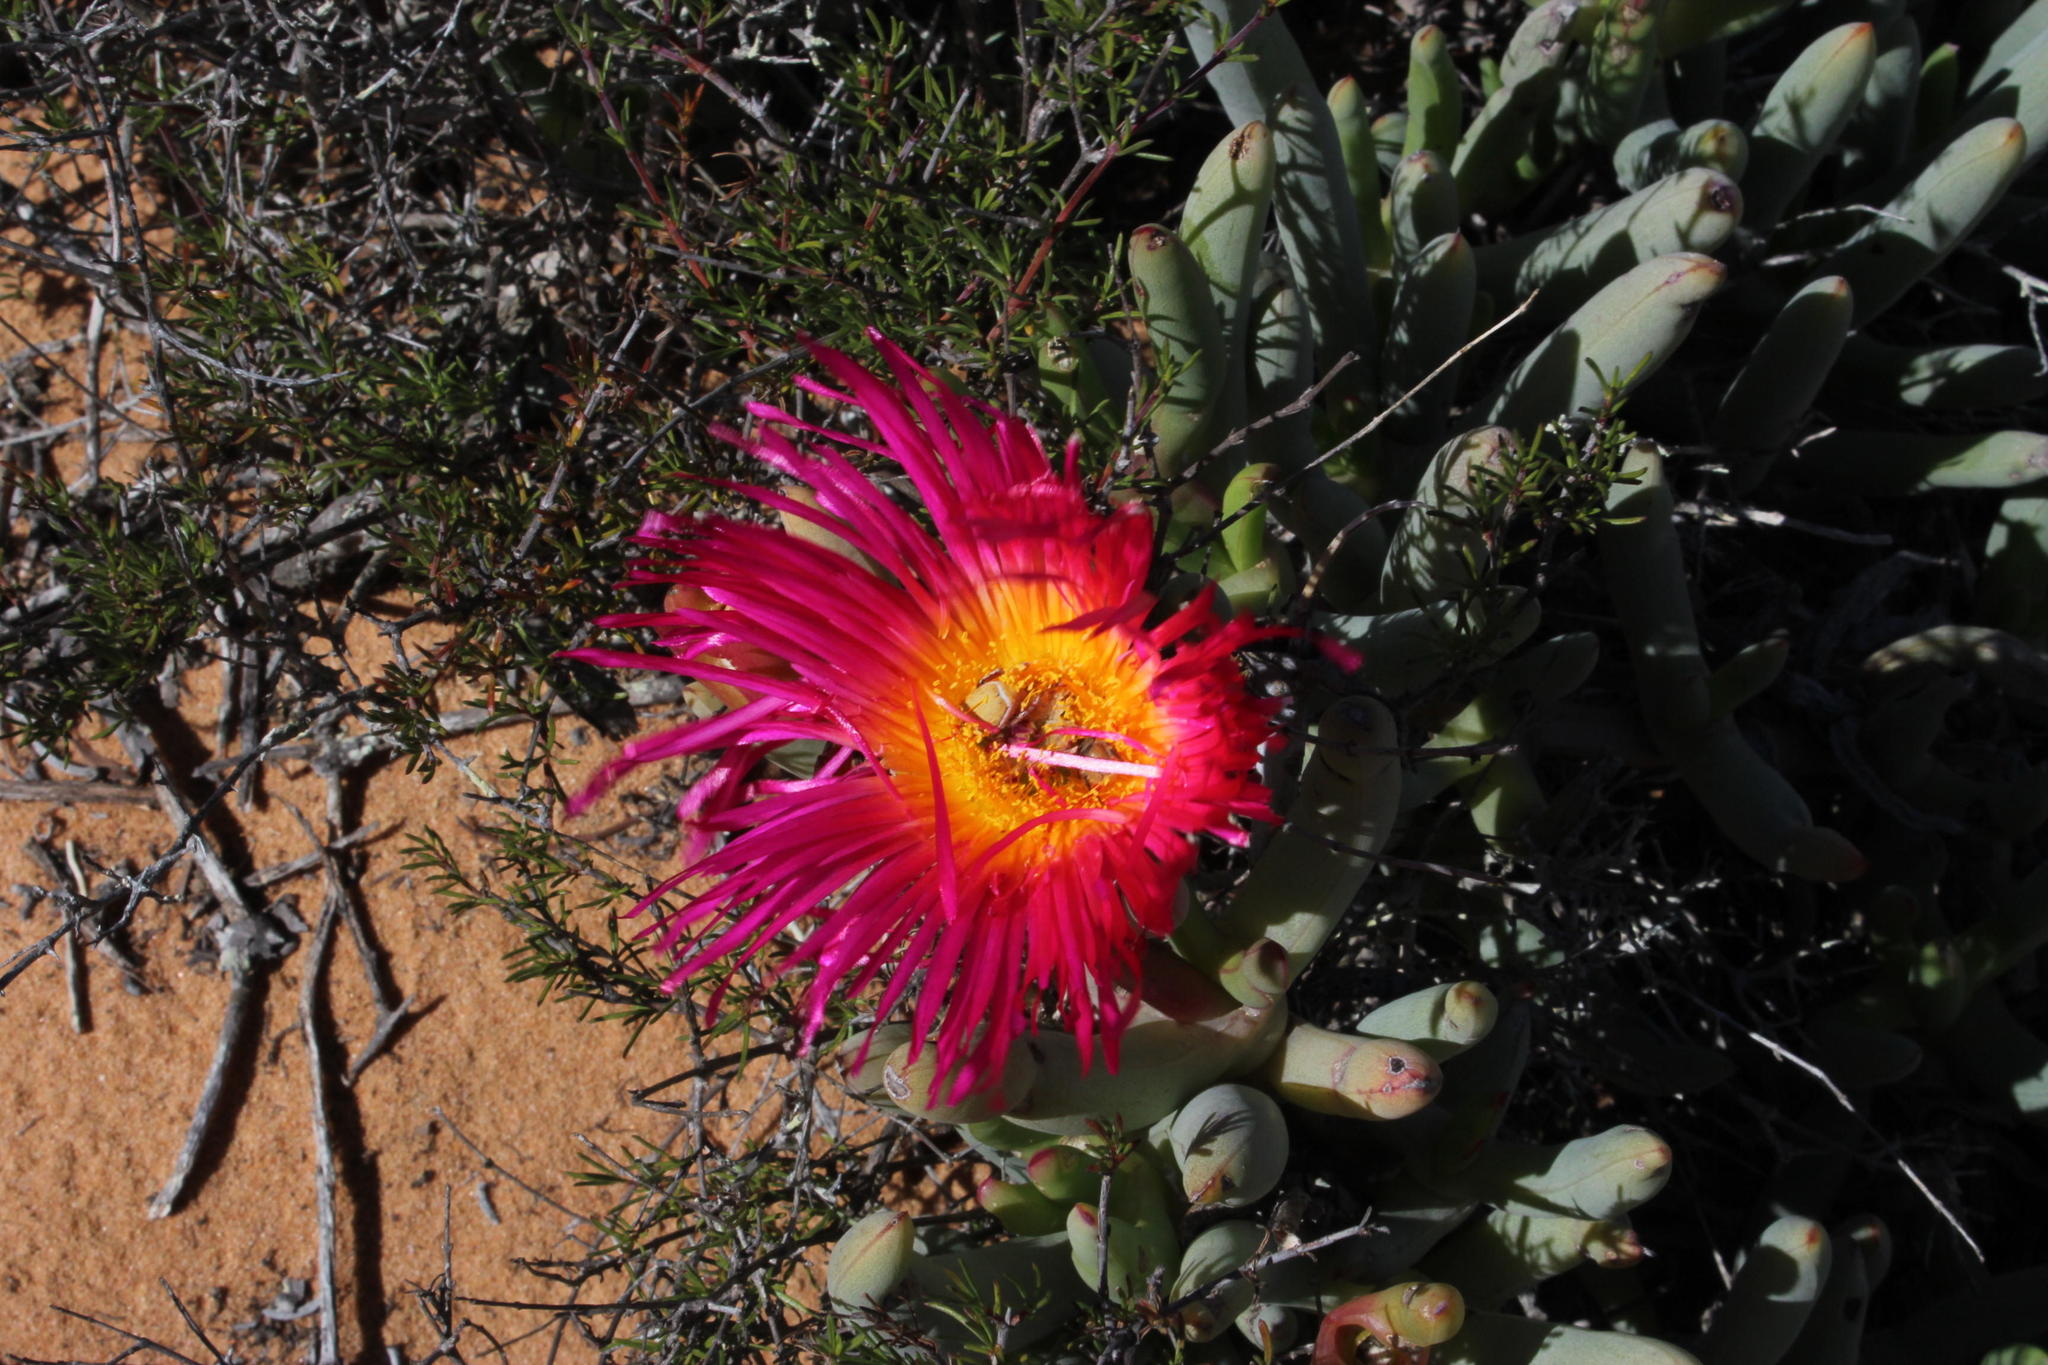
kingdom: Plantae
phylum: Tracheophyta
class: Magnoliopsida
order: Caryophyllales
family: Aizoaceae
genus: Jordaaniella
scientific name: Jordaaniella spongiosa
